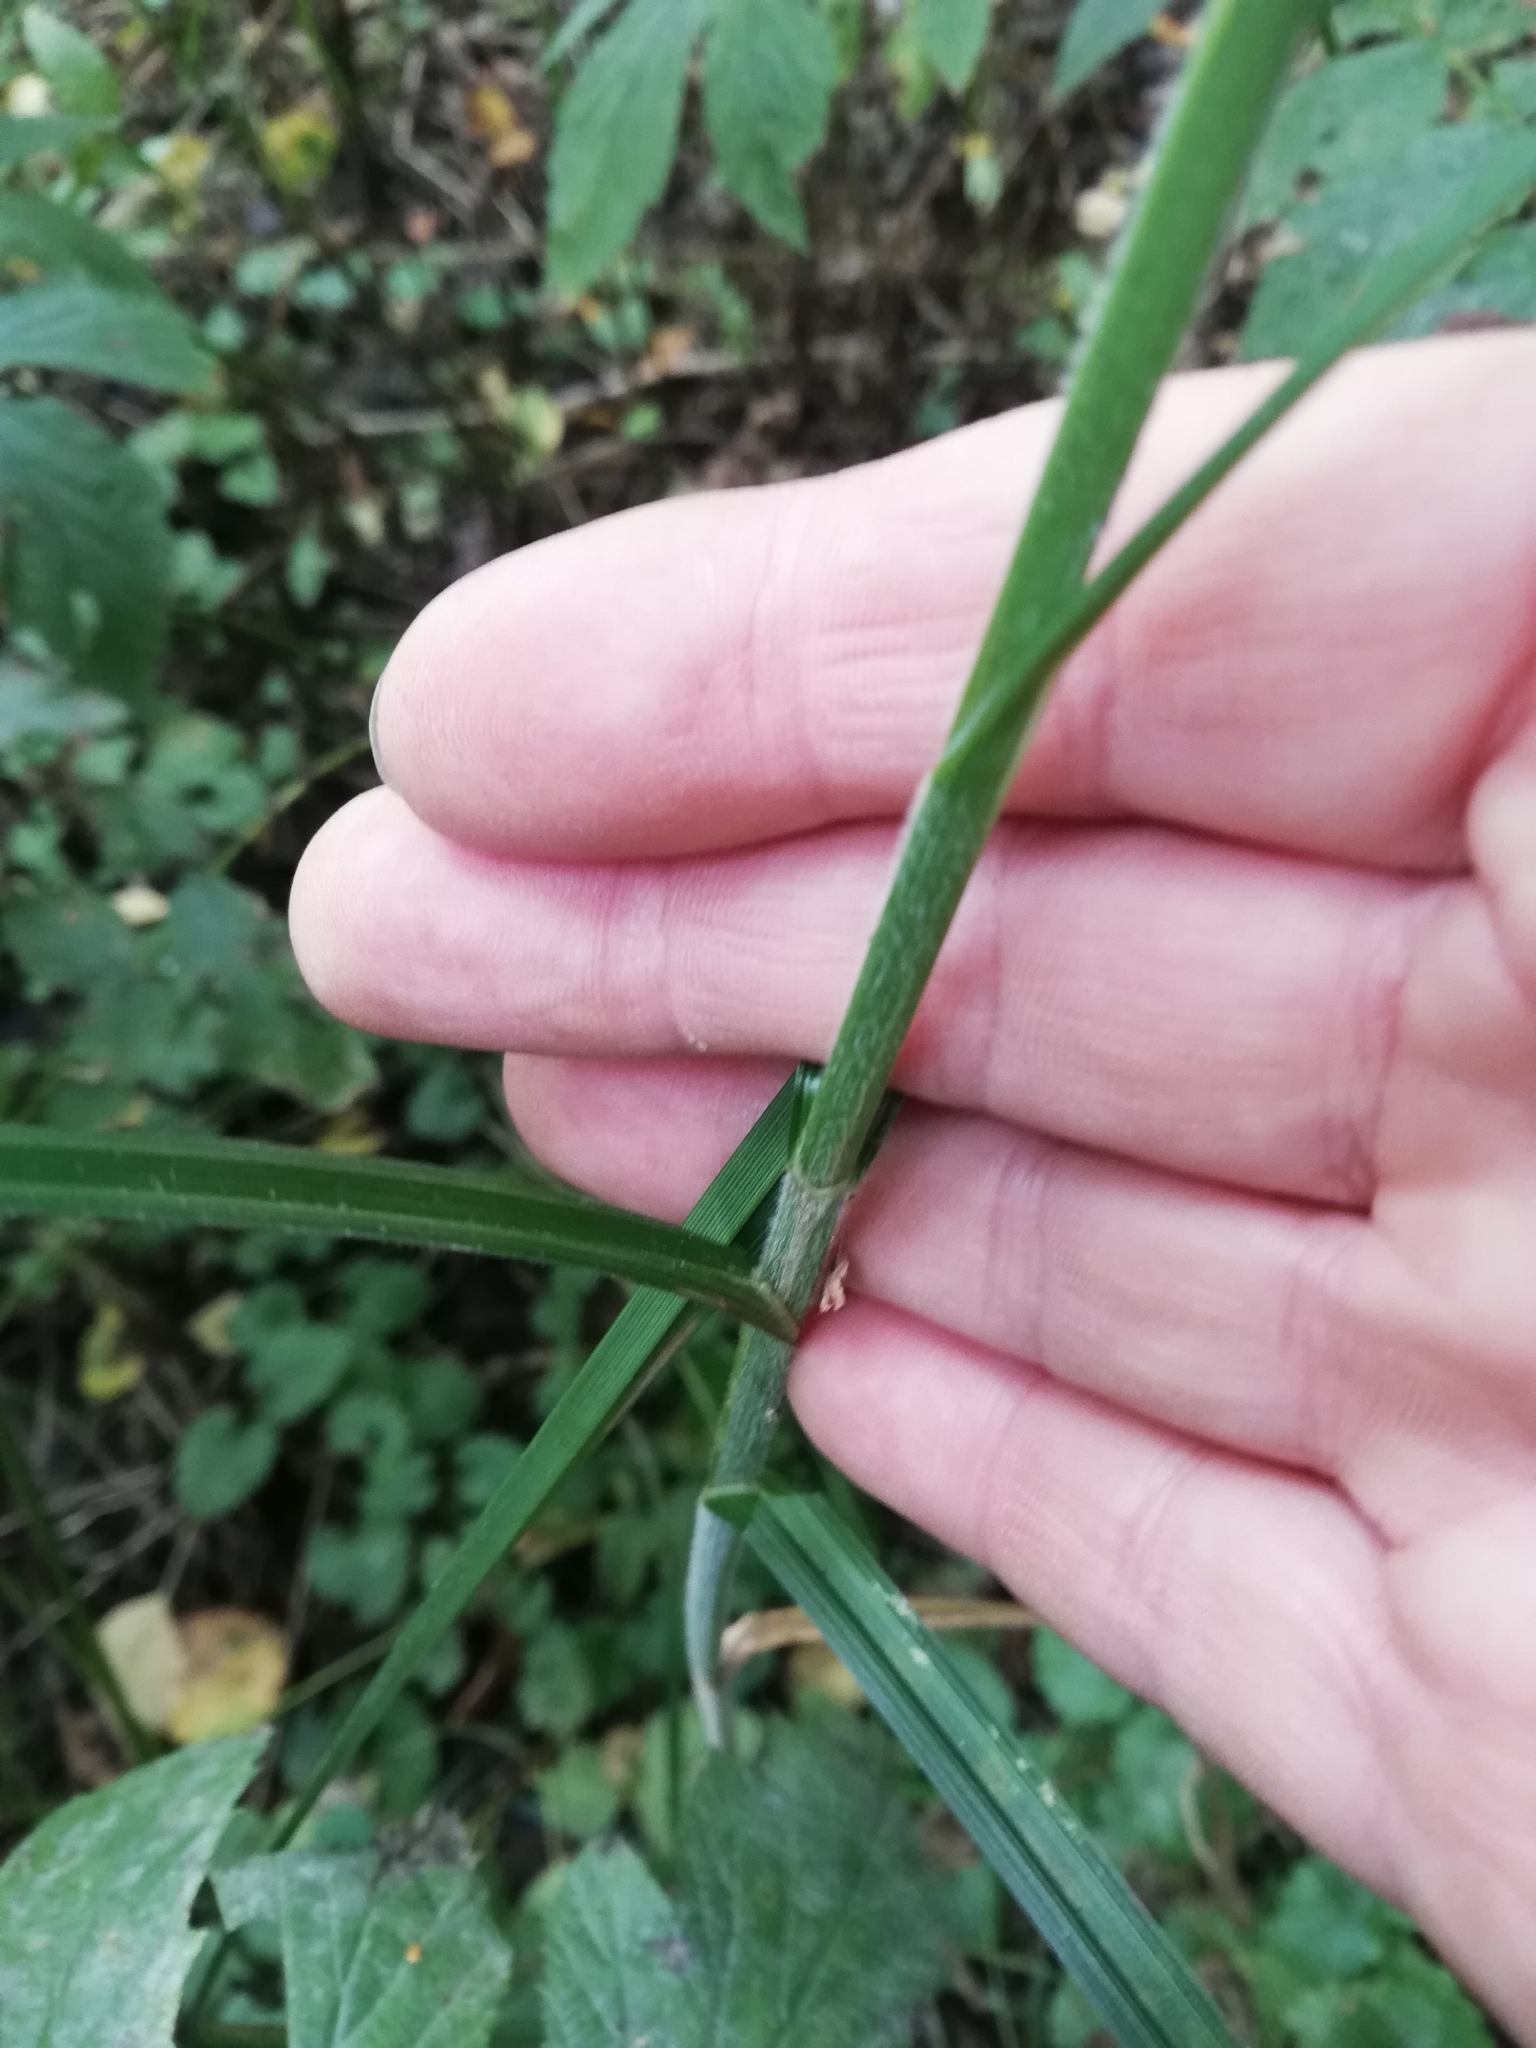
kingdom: Plantae
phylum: Tracheophyta
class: Liliopsida
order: Poales
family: Cyperaceae
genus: Carex
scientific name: Carex hirta
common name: Hairy sedge
